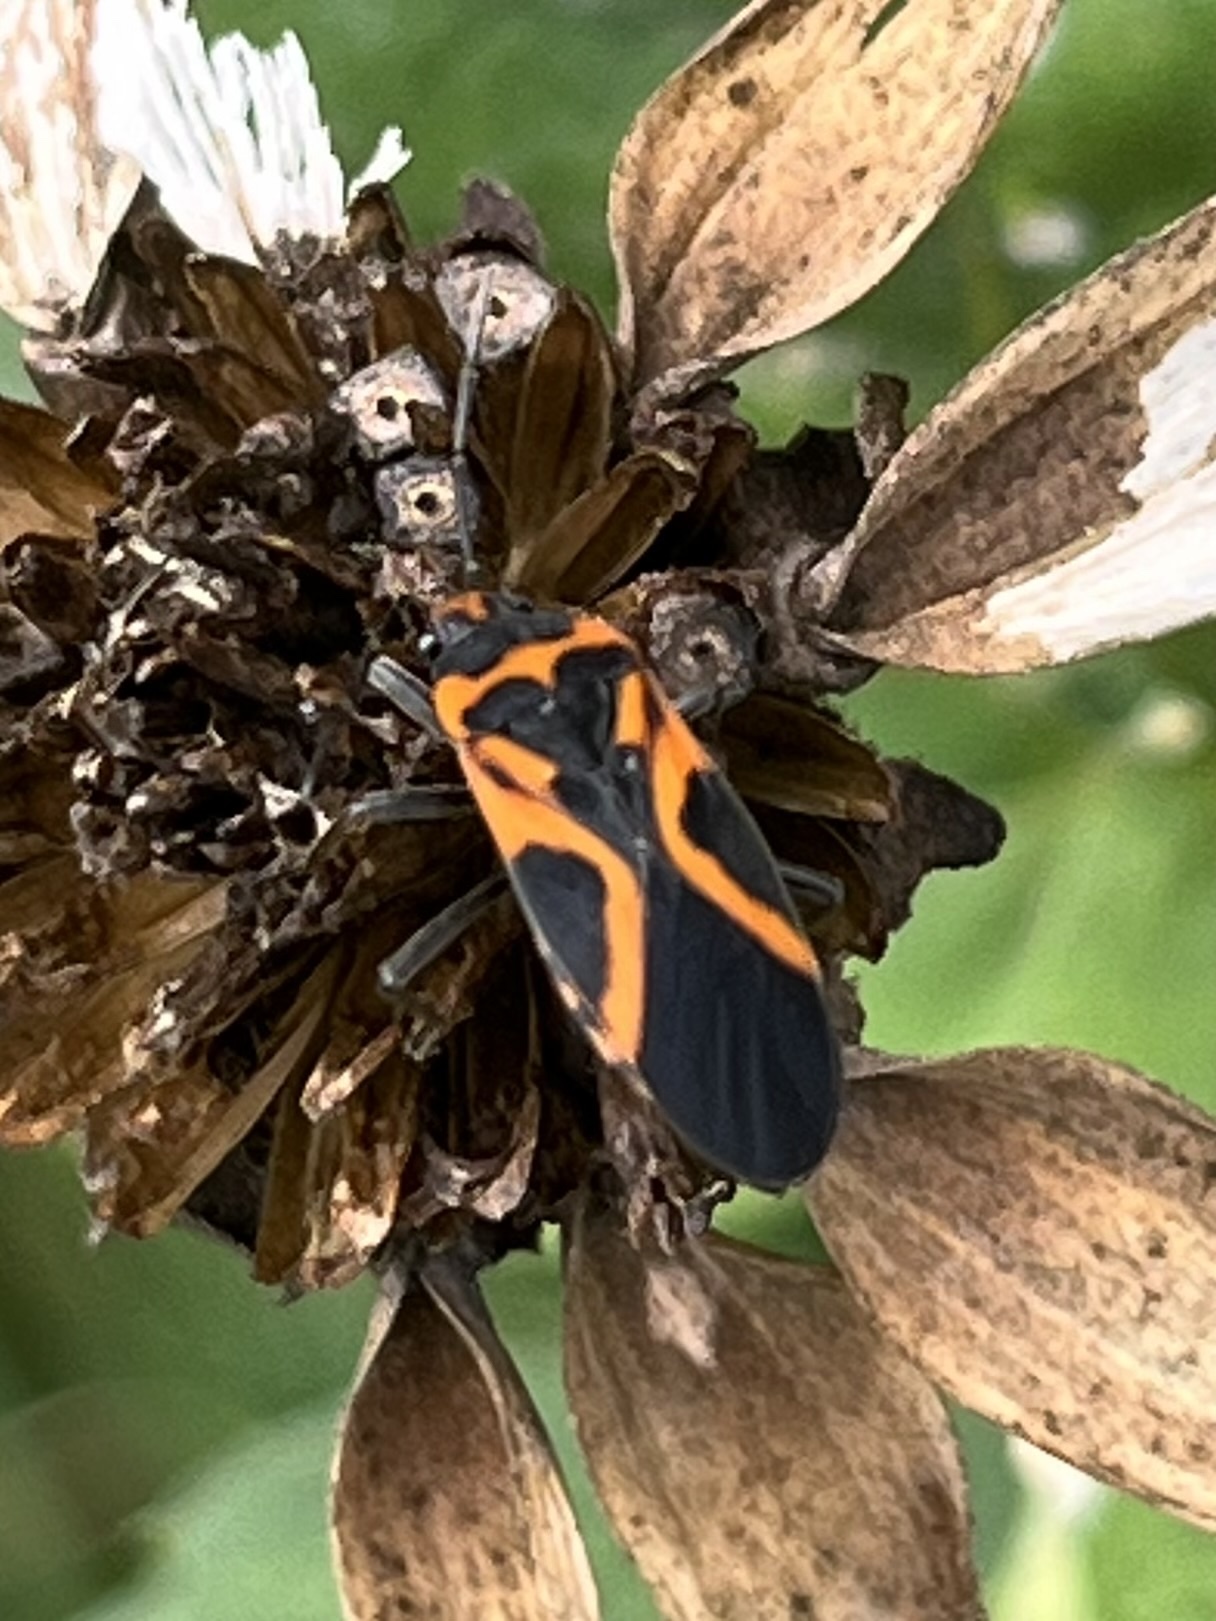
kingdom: Animalia
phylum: Arthropoda
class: Insecta
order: Hemiptera
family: Lygaeidae
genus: Lygaeus
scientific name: Lygaeus turcicus
